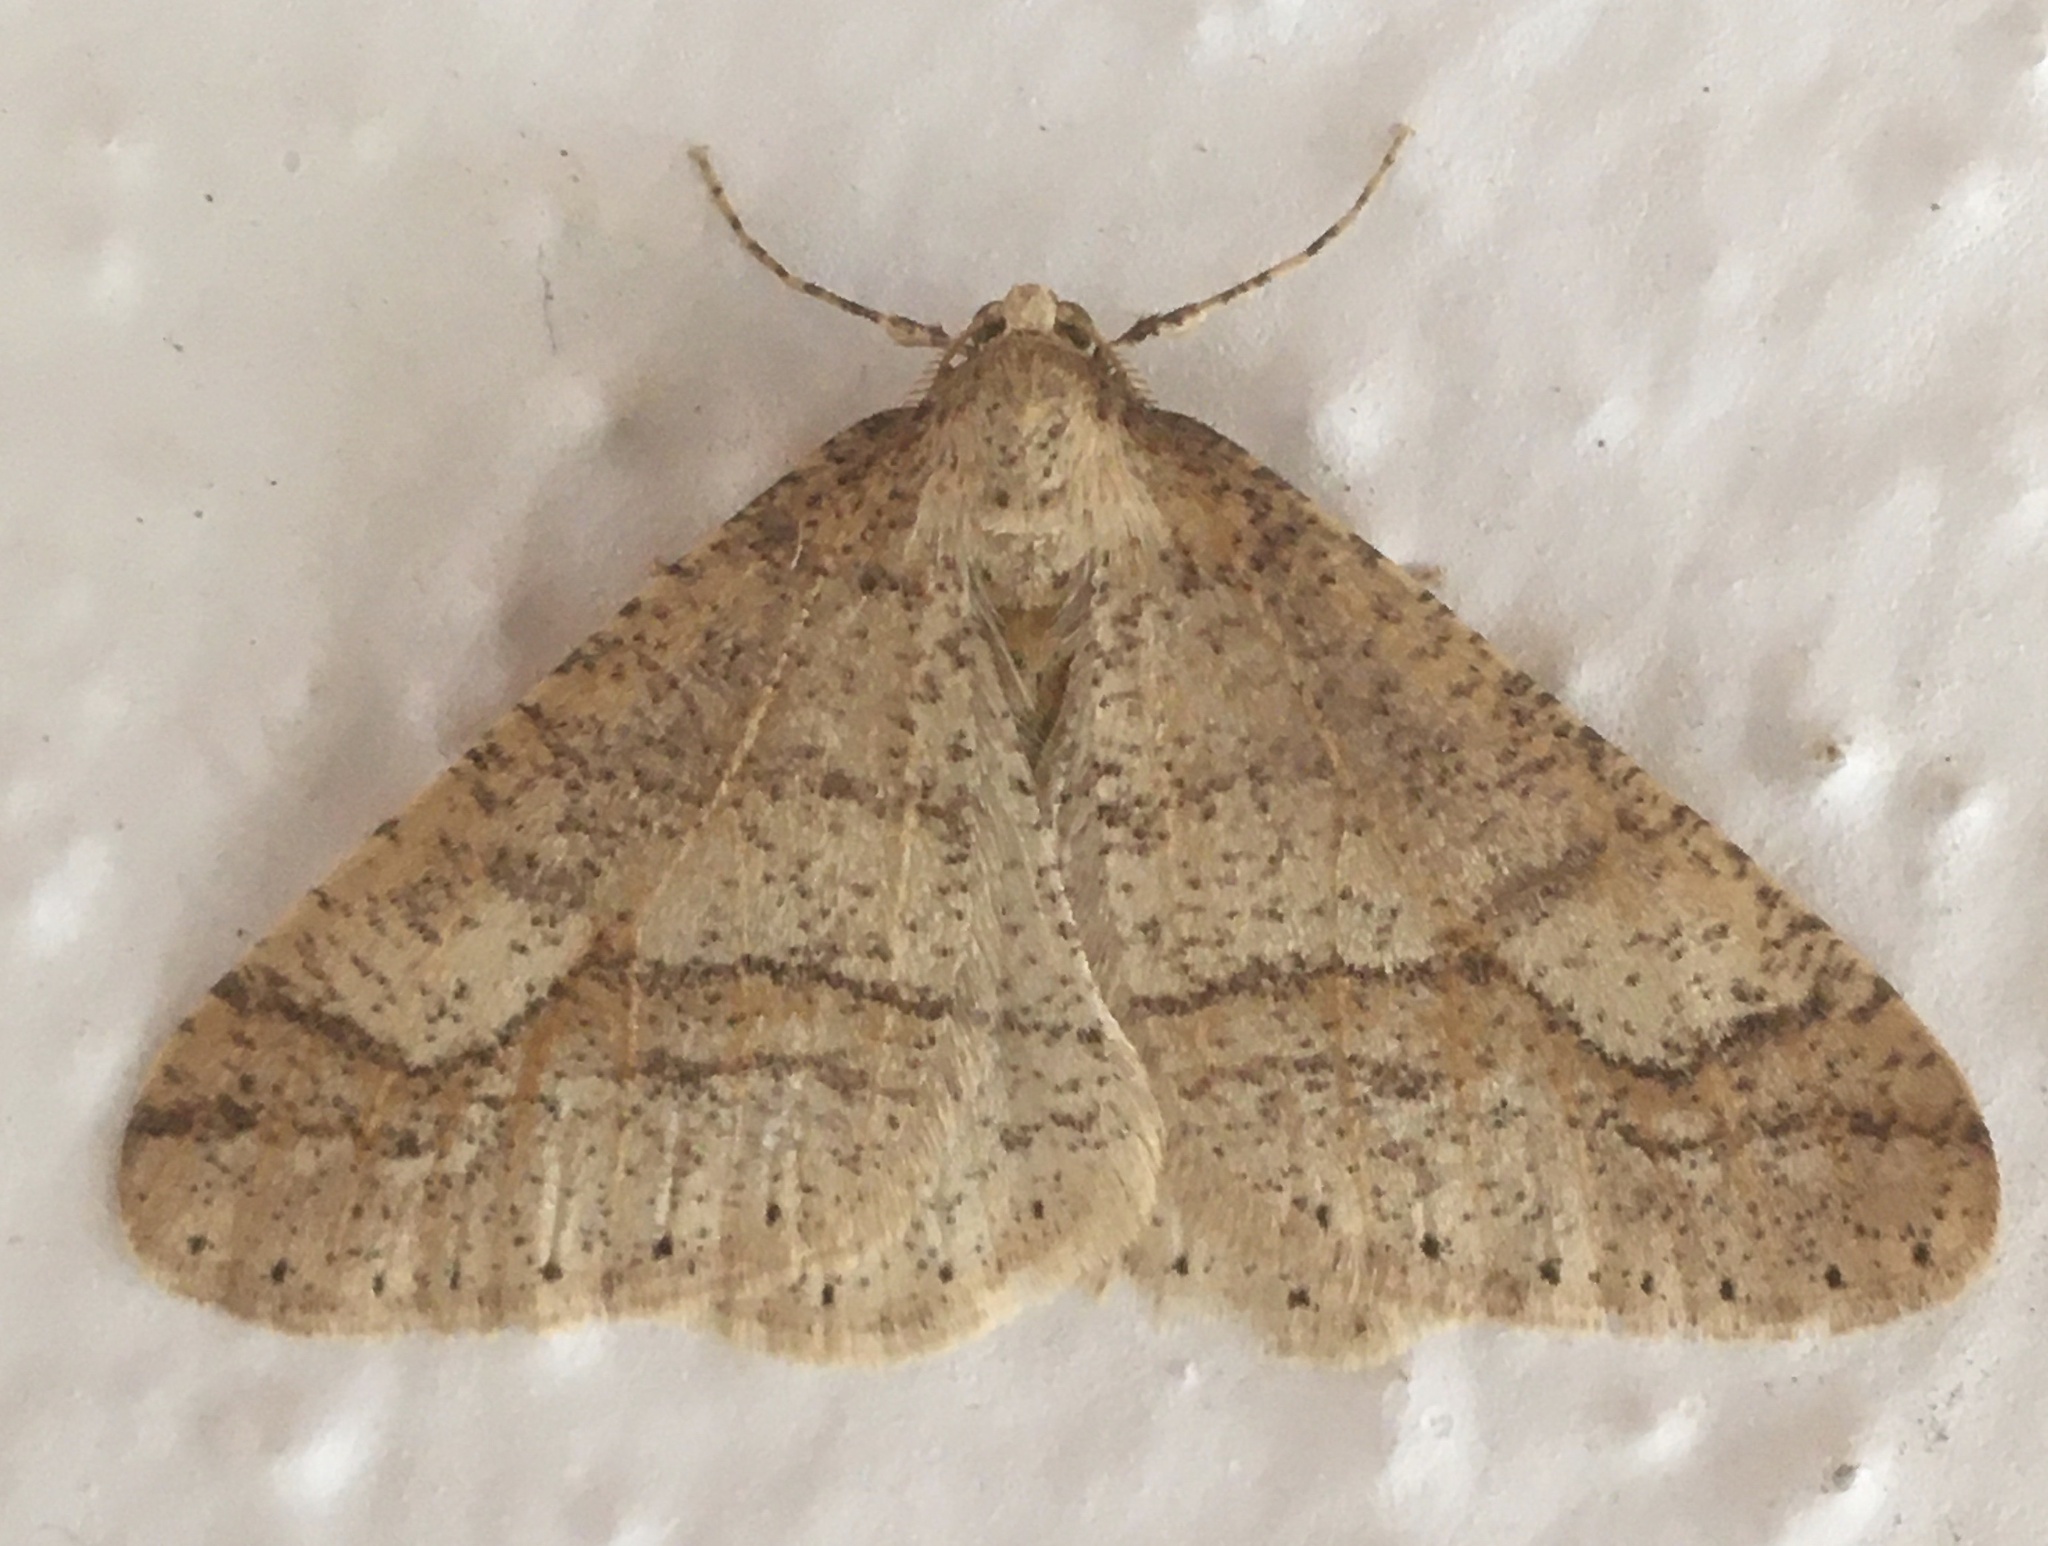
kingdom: Animalia
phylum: Arthropoda
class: Insecta
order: Lepidoptera
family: Geometridae
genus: Agriopis
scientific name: Agriopis marginaria
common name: Dotted border
